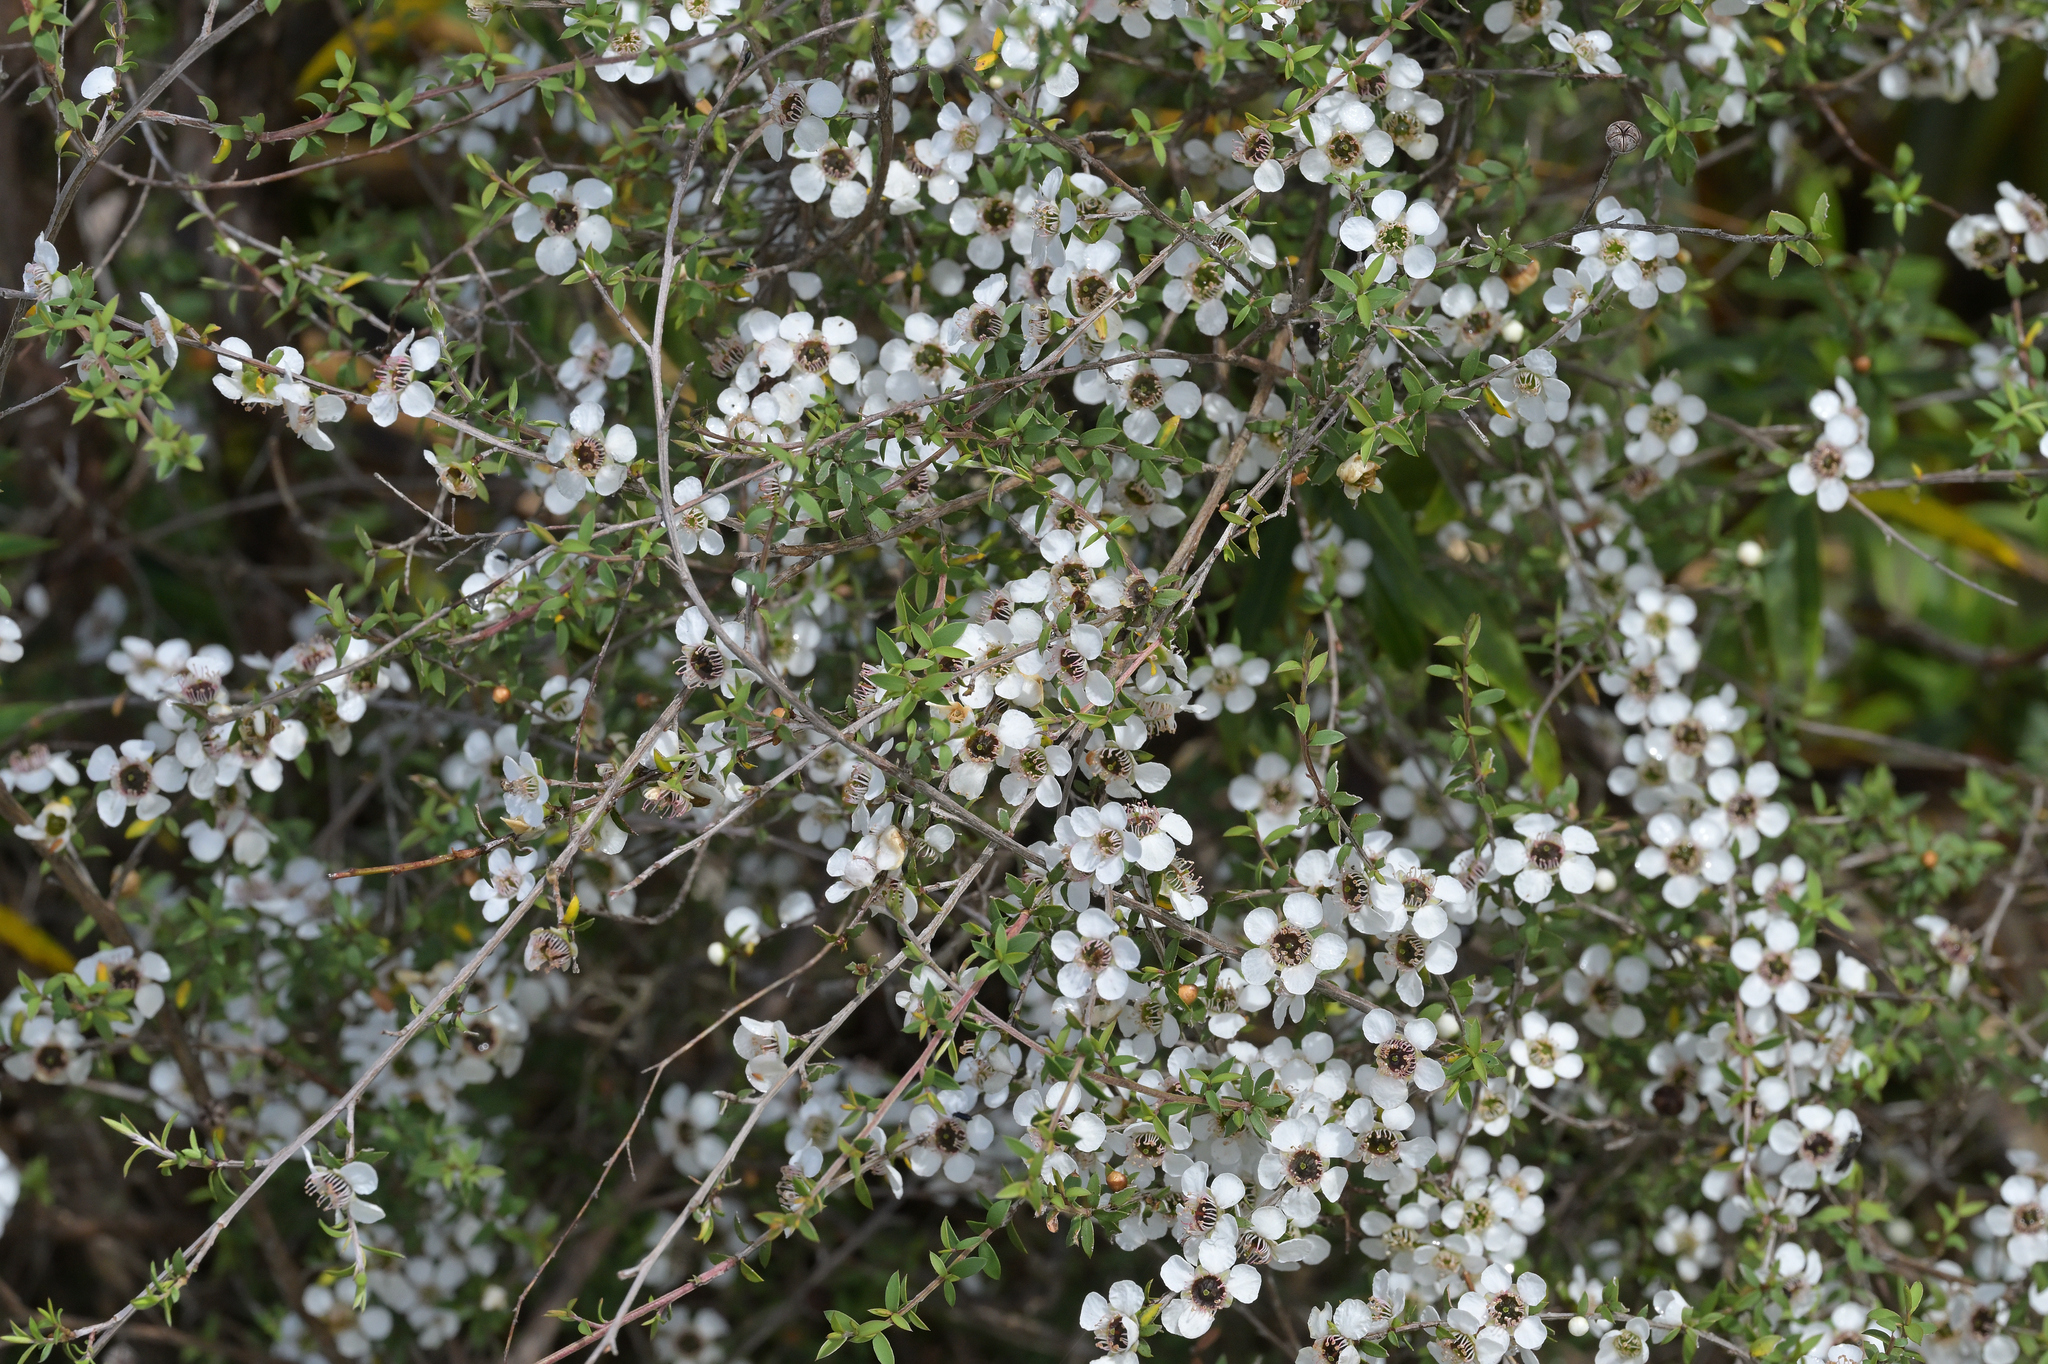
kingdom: Plantae
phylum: Tracheophyta
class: Magnoliopsida
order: Myrtales
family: Myrtaceae
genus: Leptospermum
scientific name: Leptospermum scoparium
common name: Broom tea-tree
